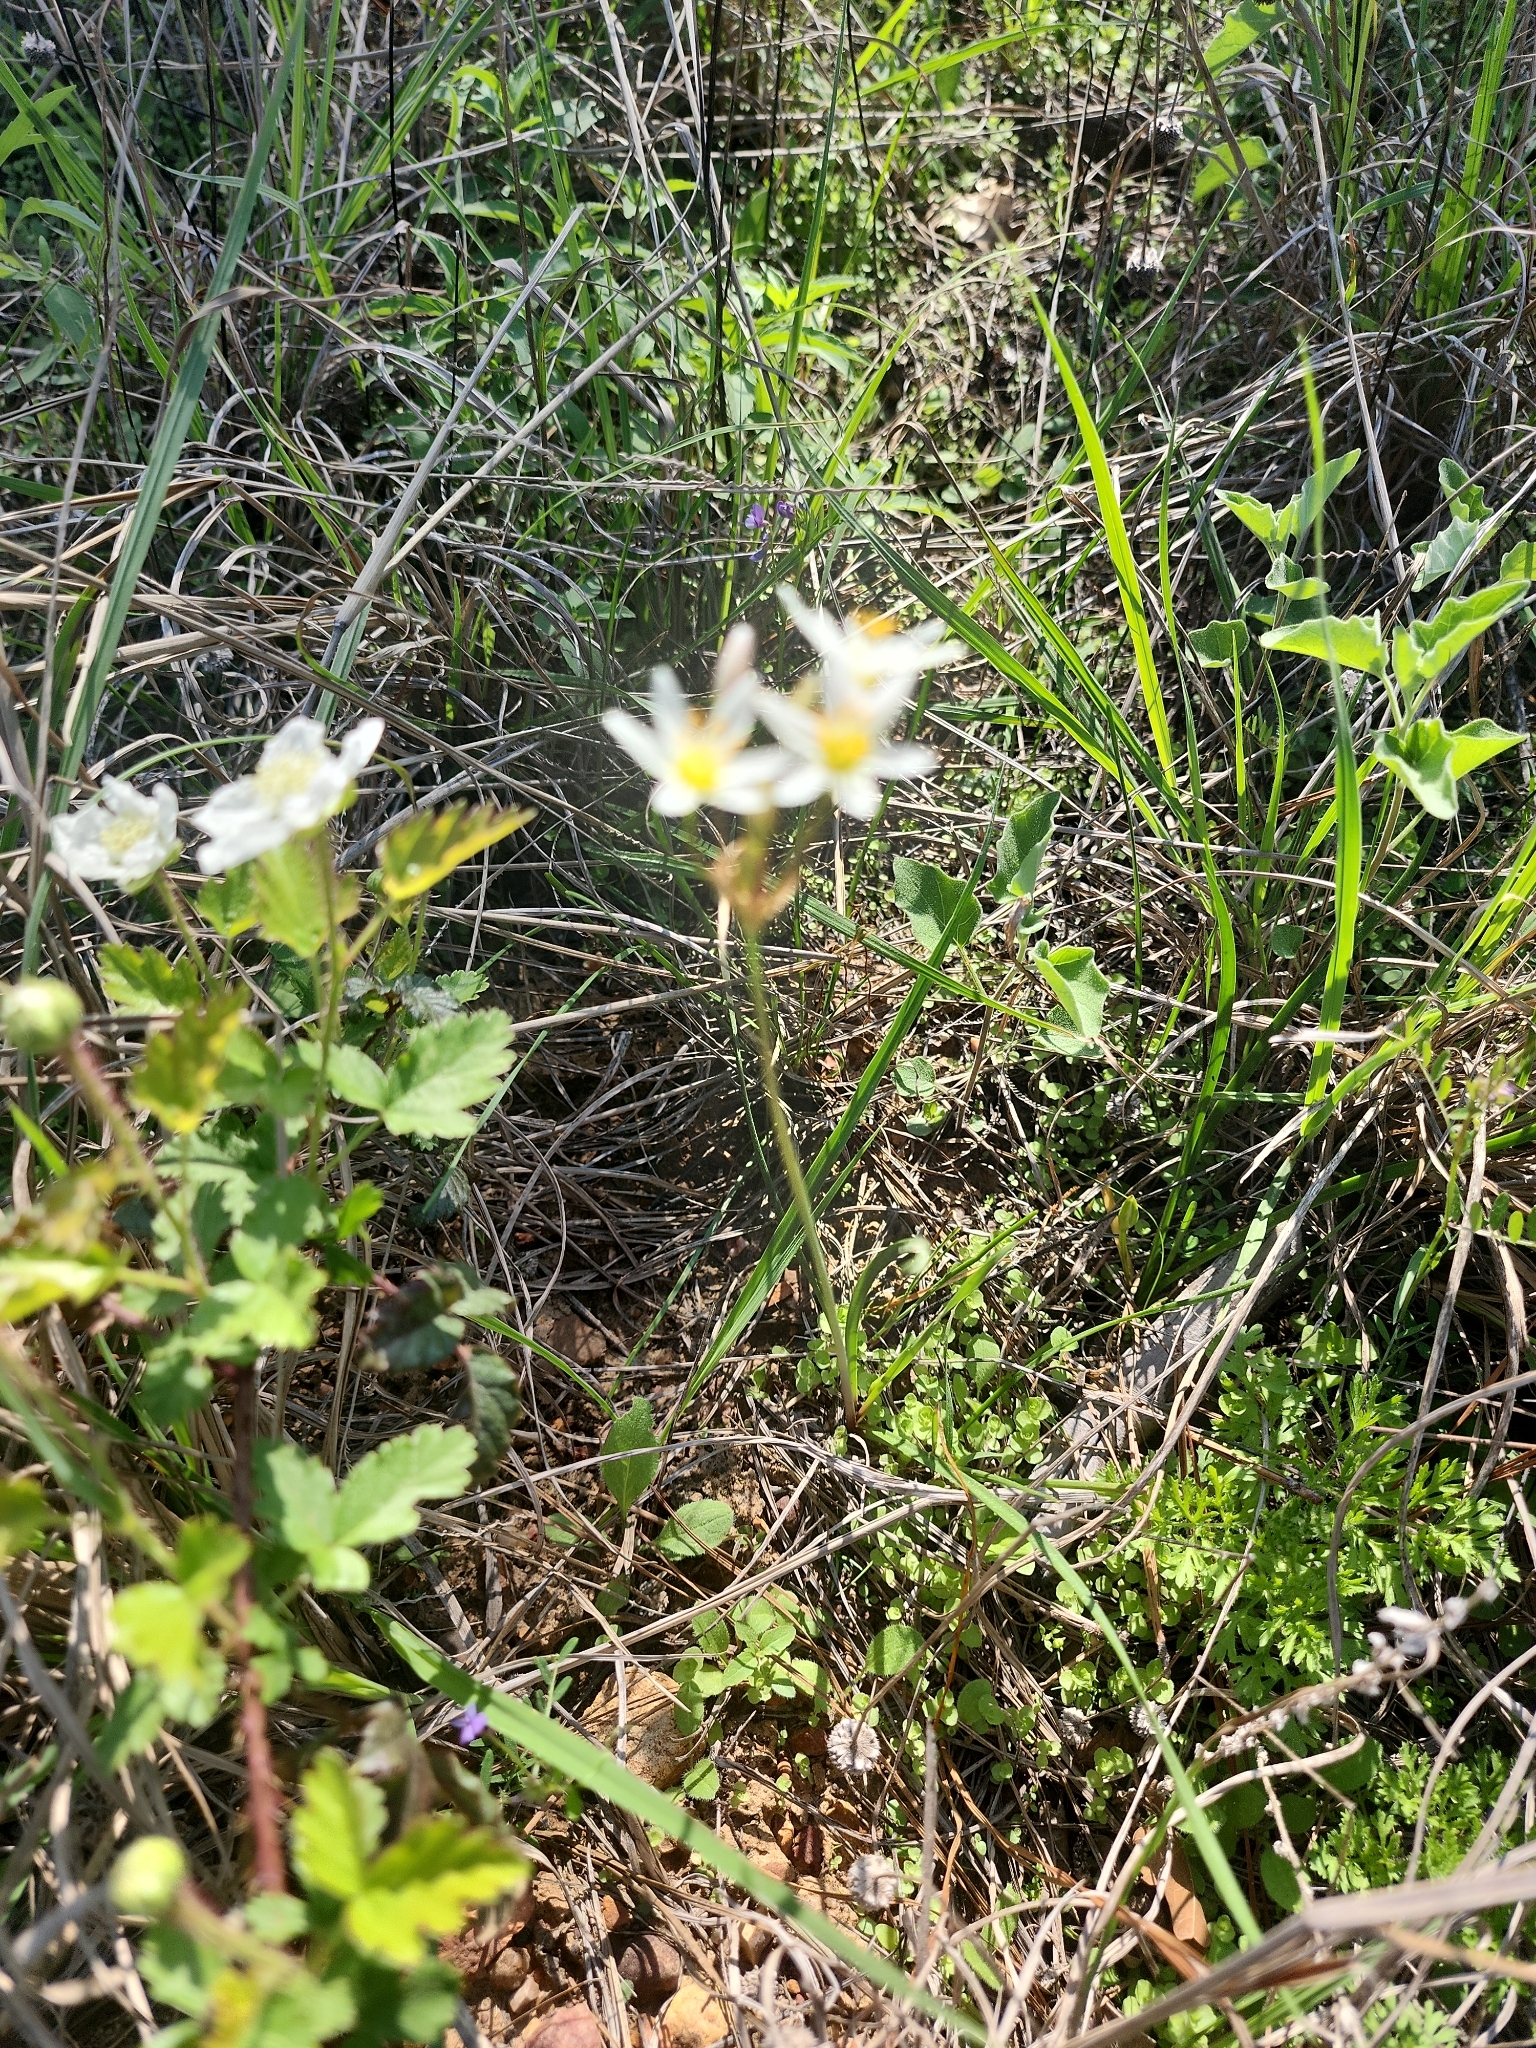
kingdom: Plantae
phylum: Tracheophyta
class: Liliopsida
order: Asparagales
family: Amaryllidaceae
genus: Nothoscordum
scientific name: Nothoscordum bivalve
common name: Crow-poison
